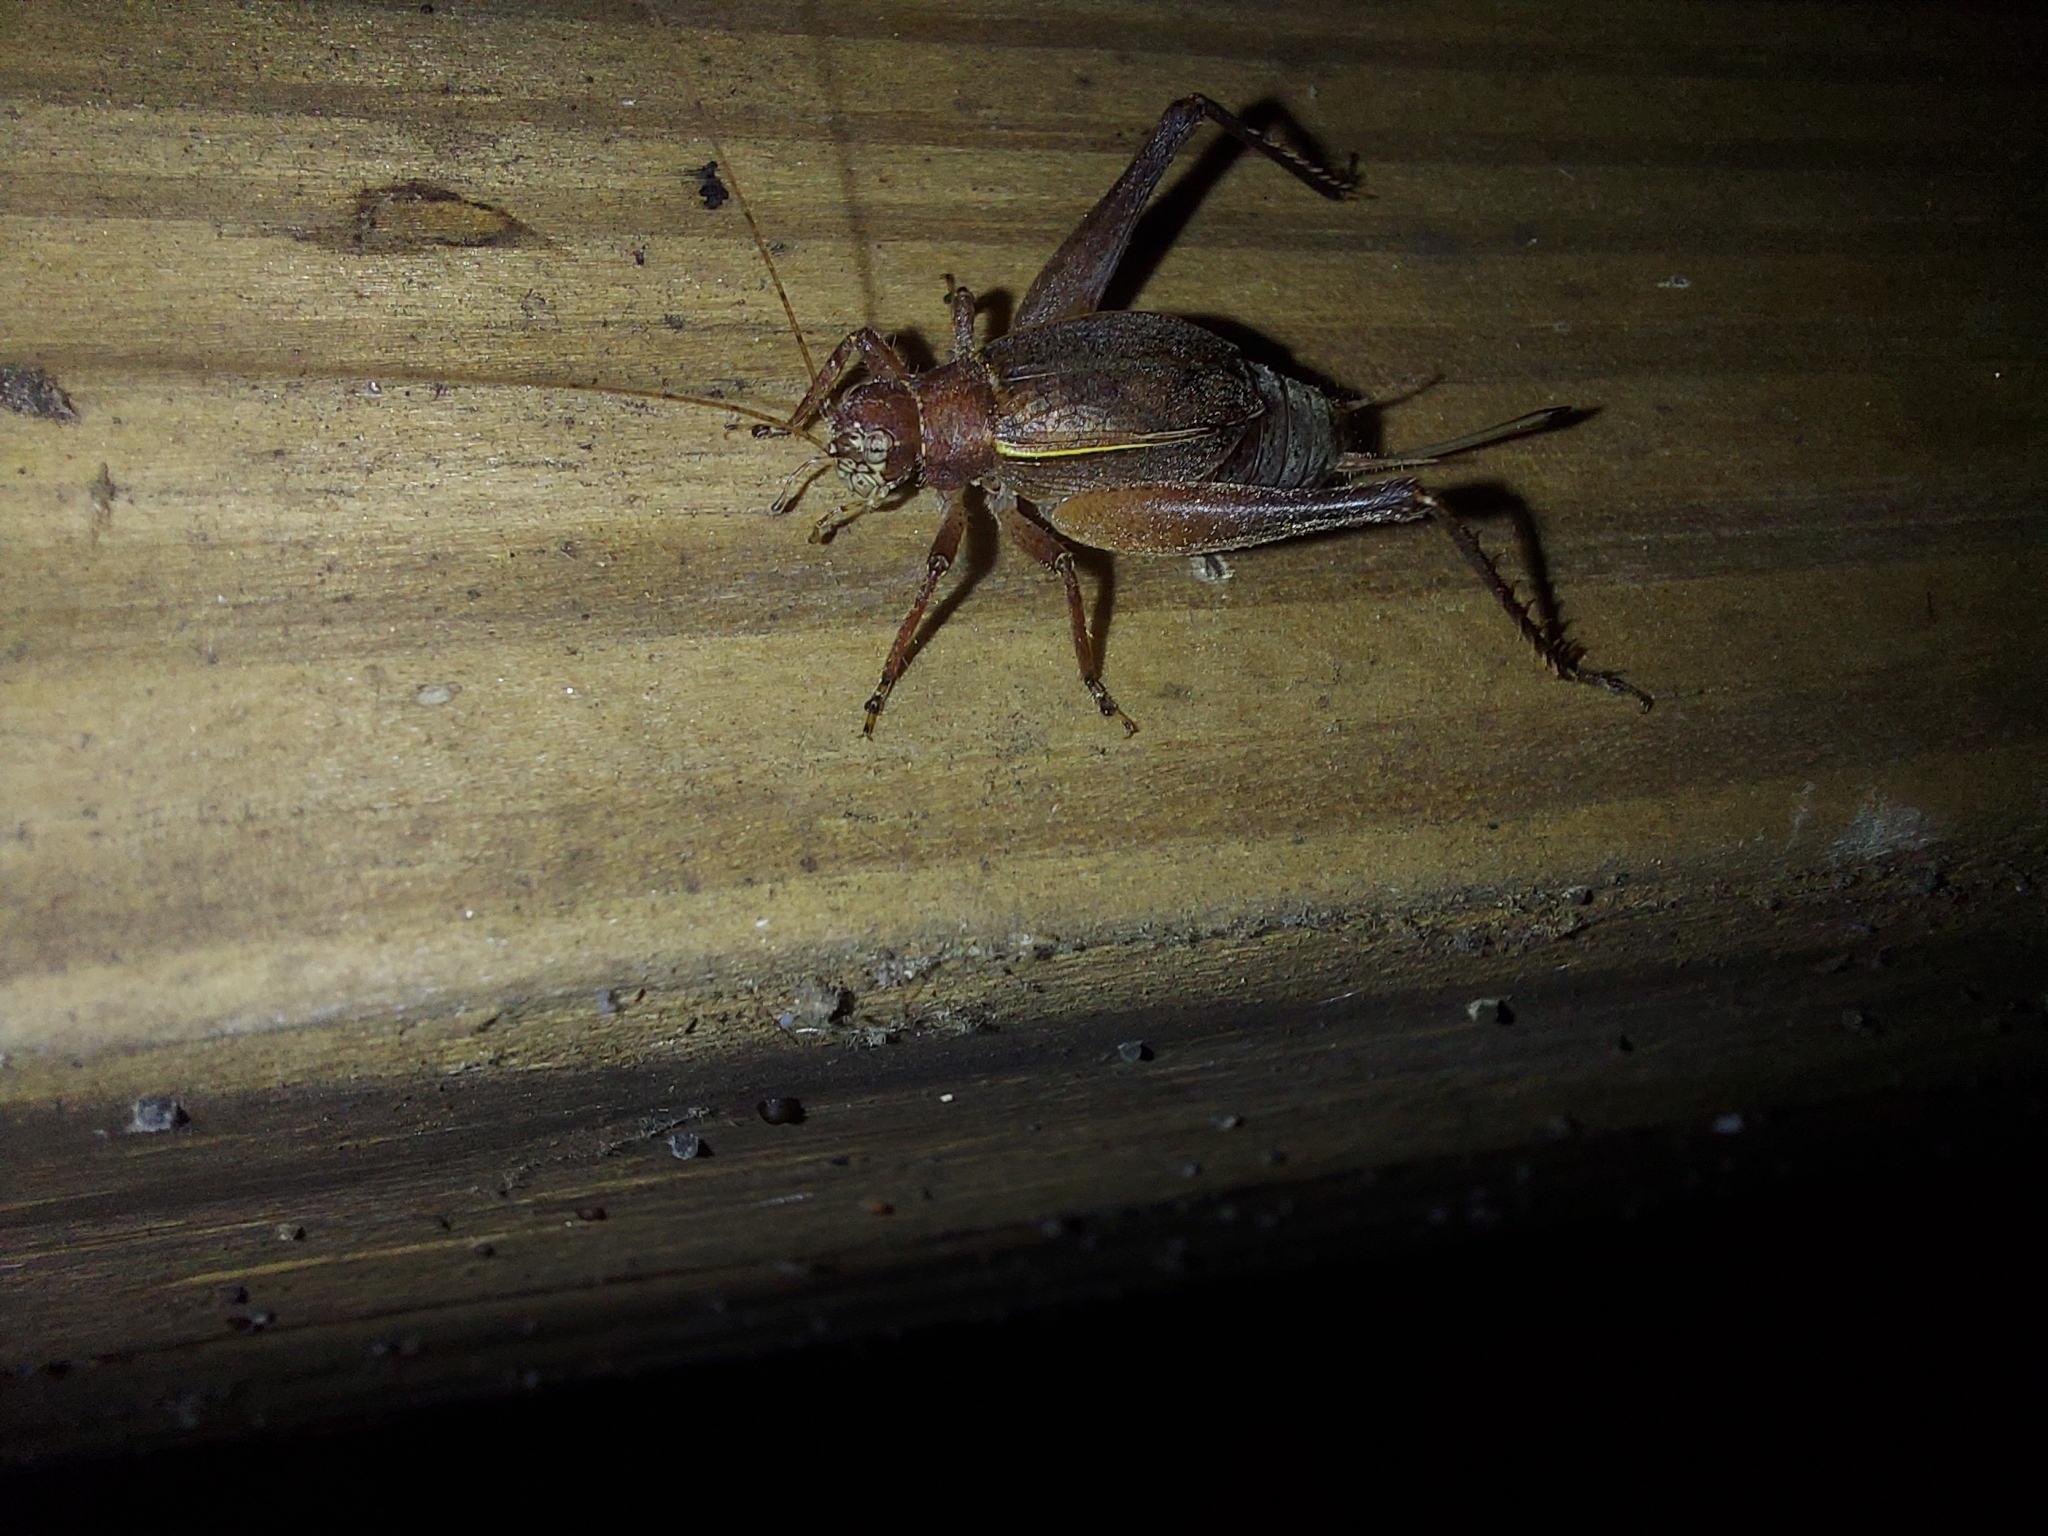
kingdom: Animalia
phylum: Arthropoda
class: Insecta
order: Orthoptera
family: Gryllidae
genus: Hapithus
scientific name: Hapithus agitator
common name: Restless bush cricket
